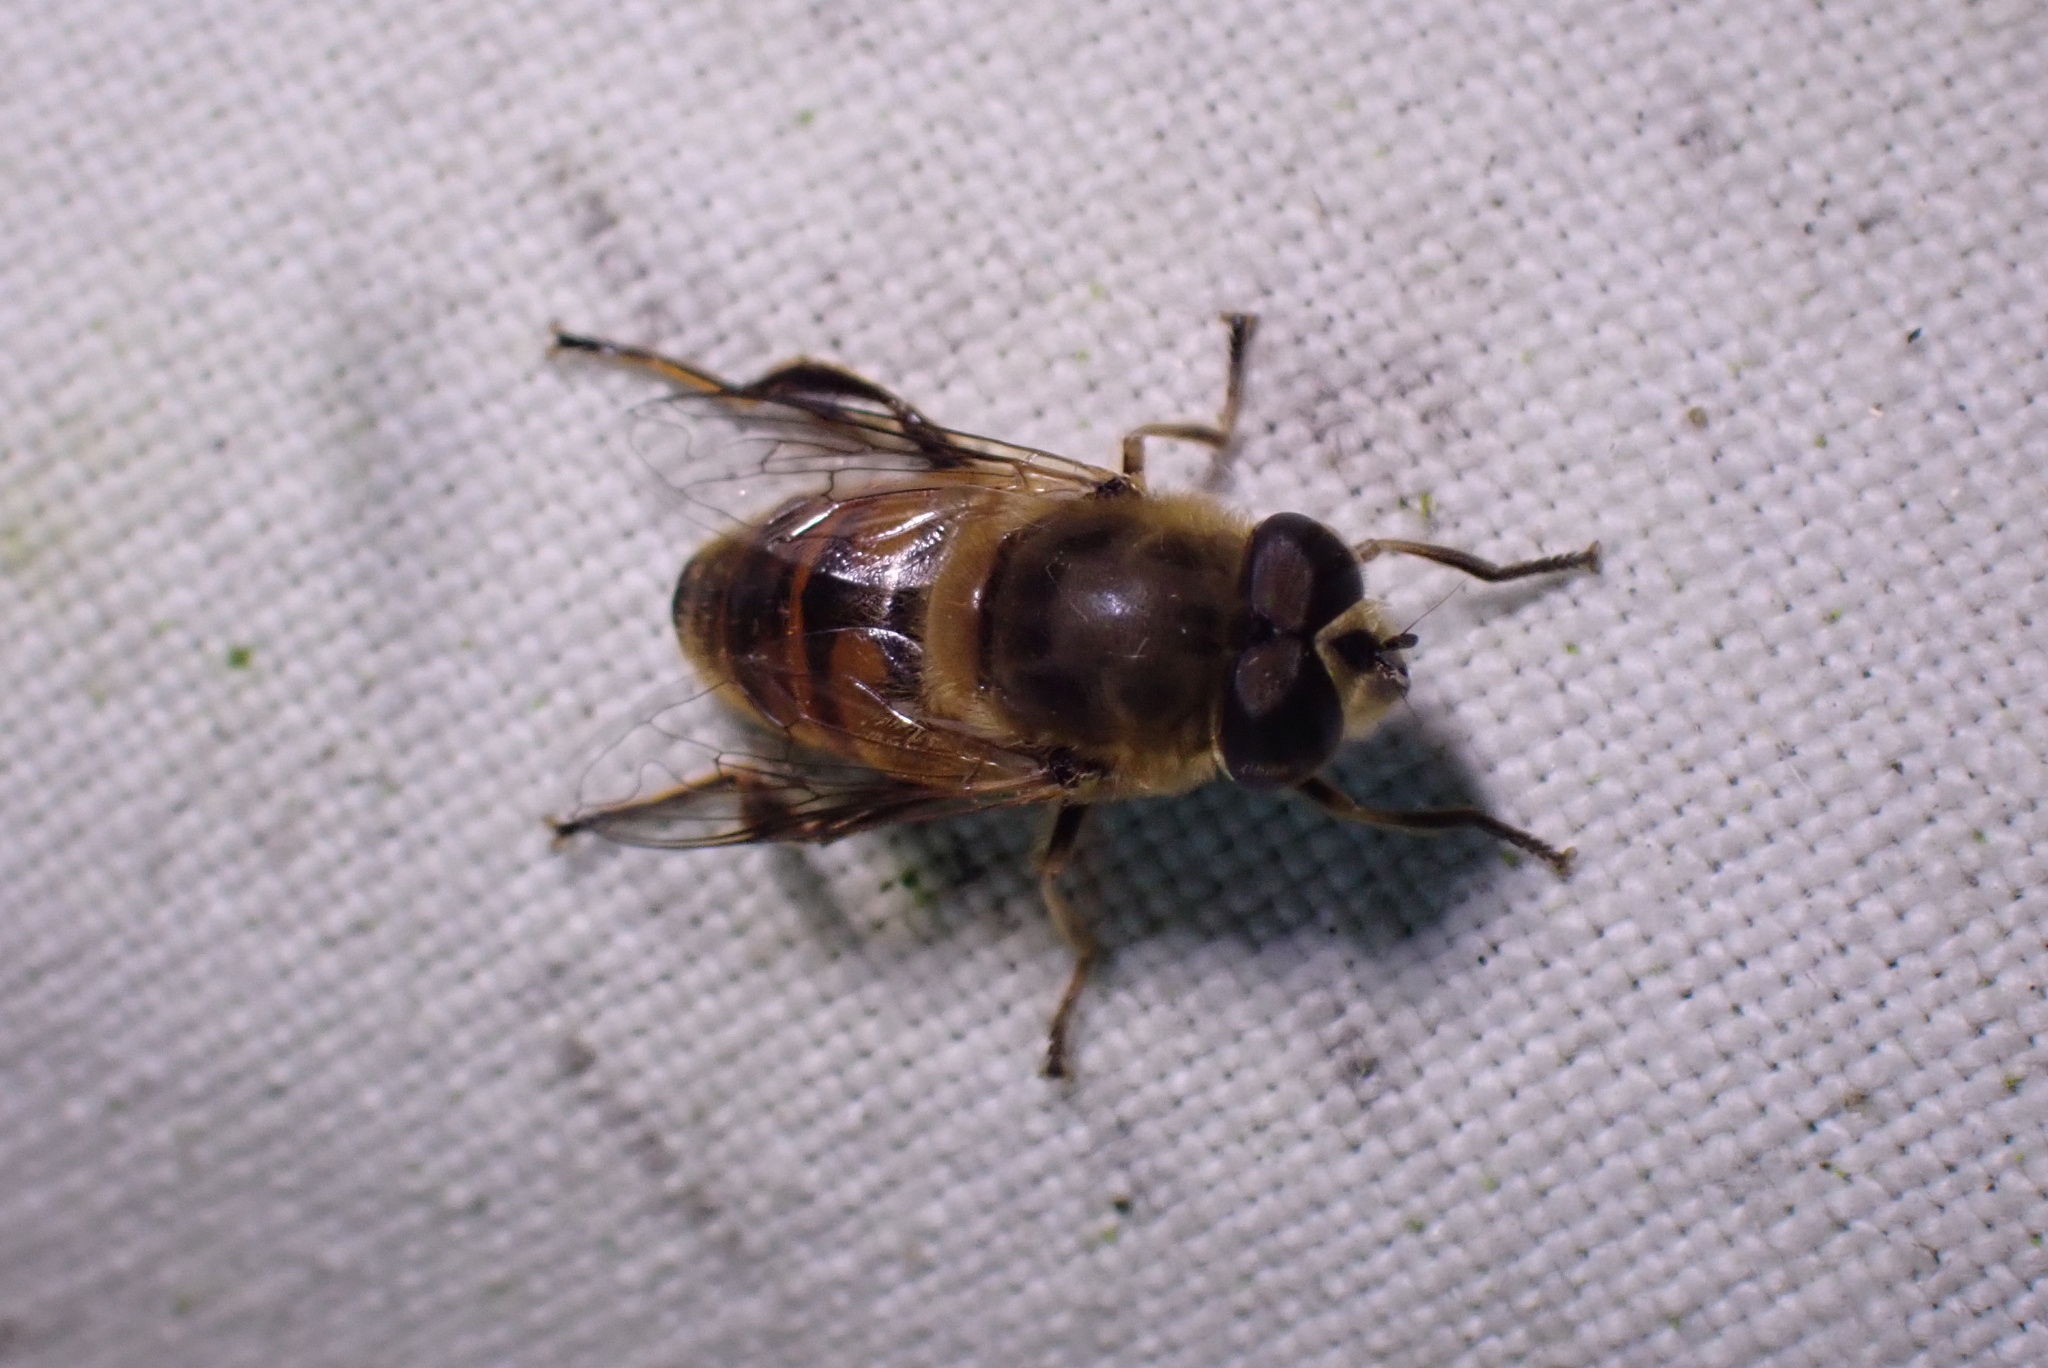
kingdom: Animalia
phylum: Arthropoda
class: Insecta
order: Diptera
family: Syrphidae
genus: Eristalis
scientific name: Eristalis tenax
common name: Drone fly
